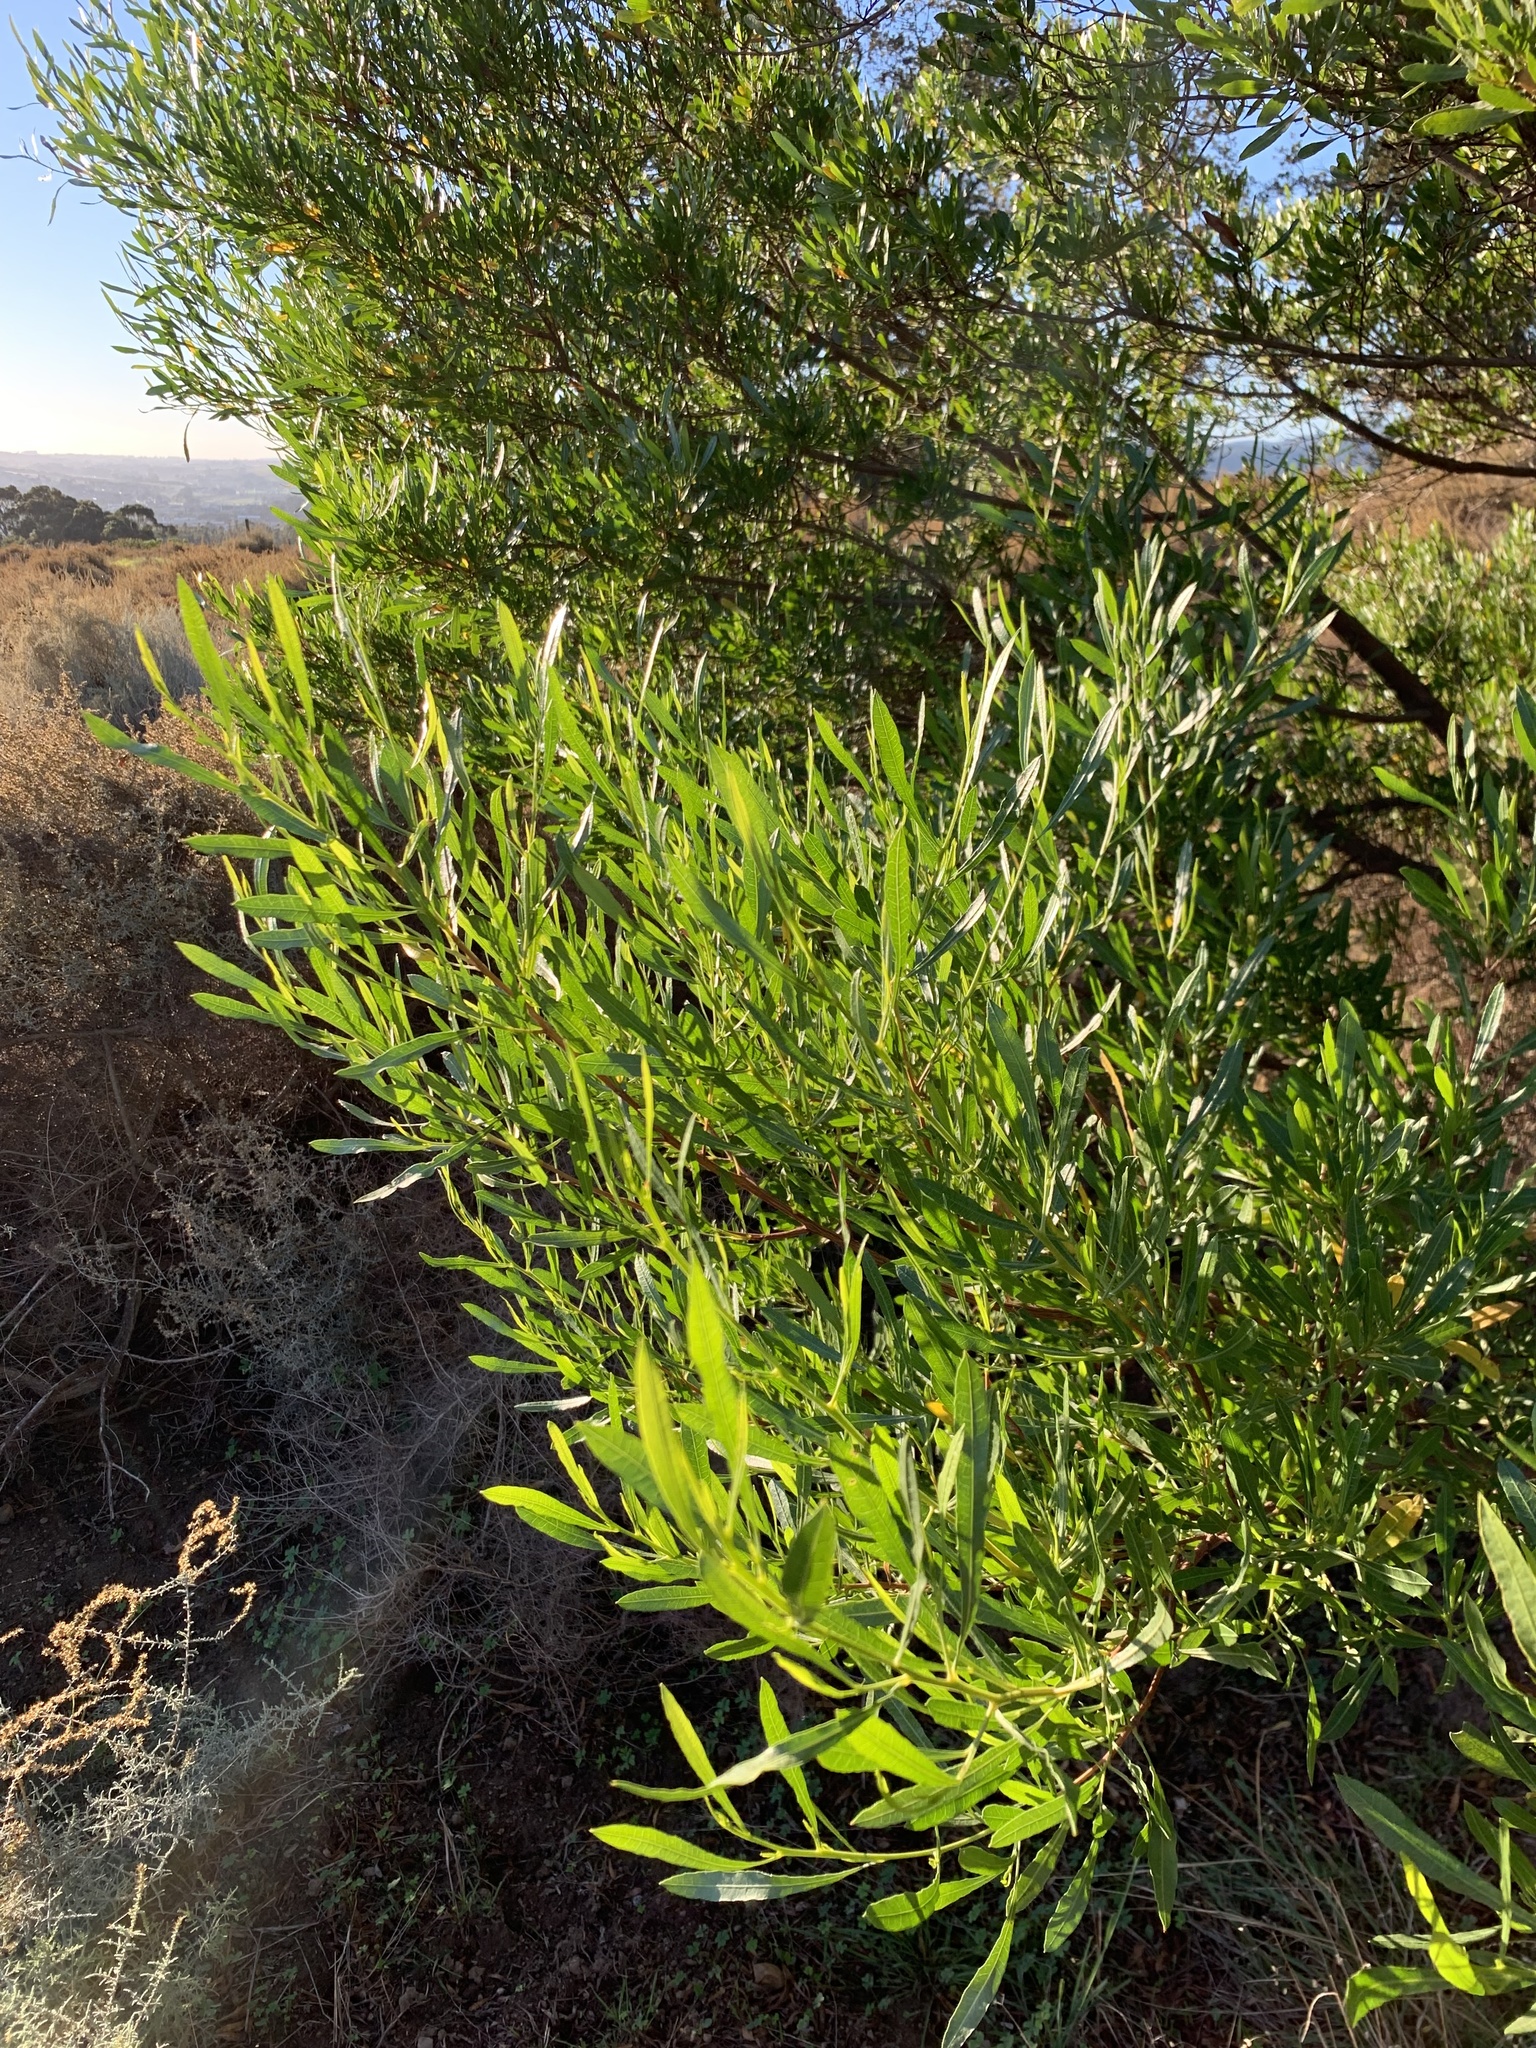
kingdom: Plantae
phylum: Tracheophyta
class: Magnoliopsida
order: Sapindales
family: Sapindaceae
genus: Dodonaea
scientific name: Dodonaea viscosa
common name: Hopbush
